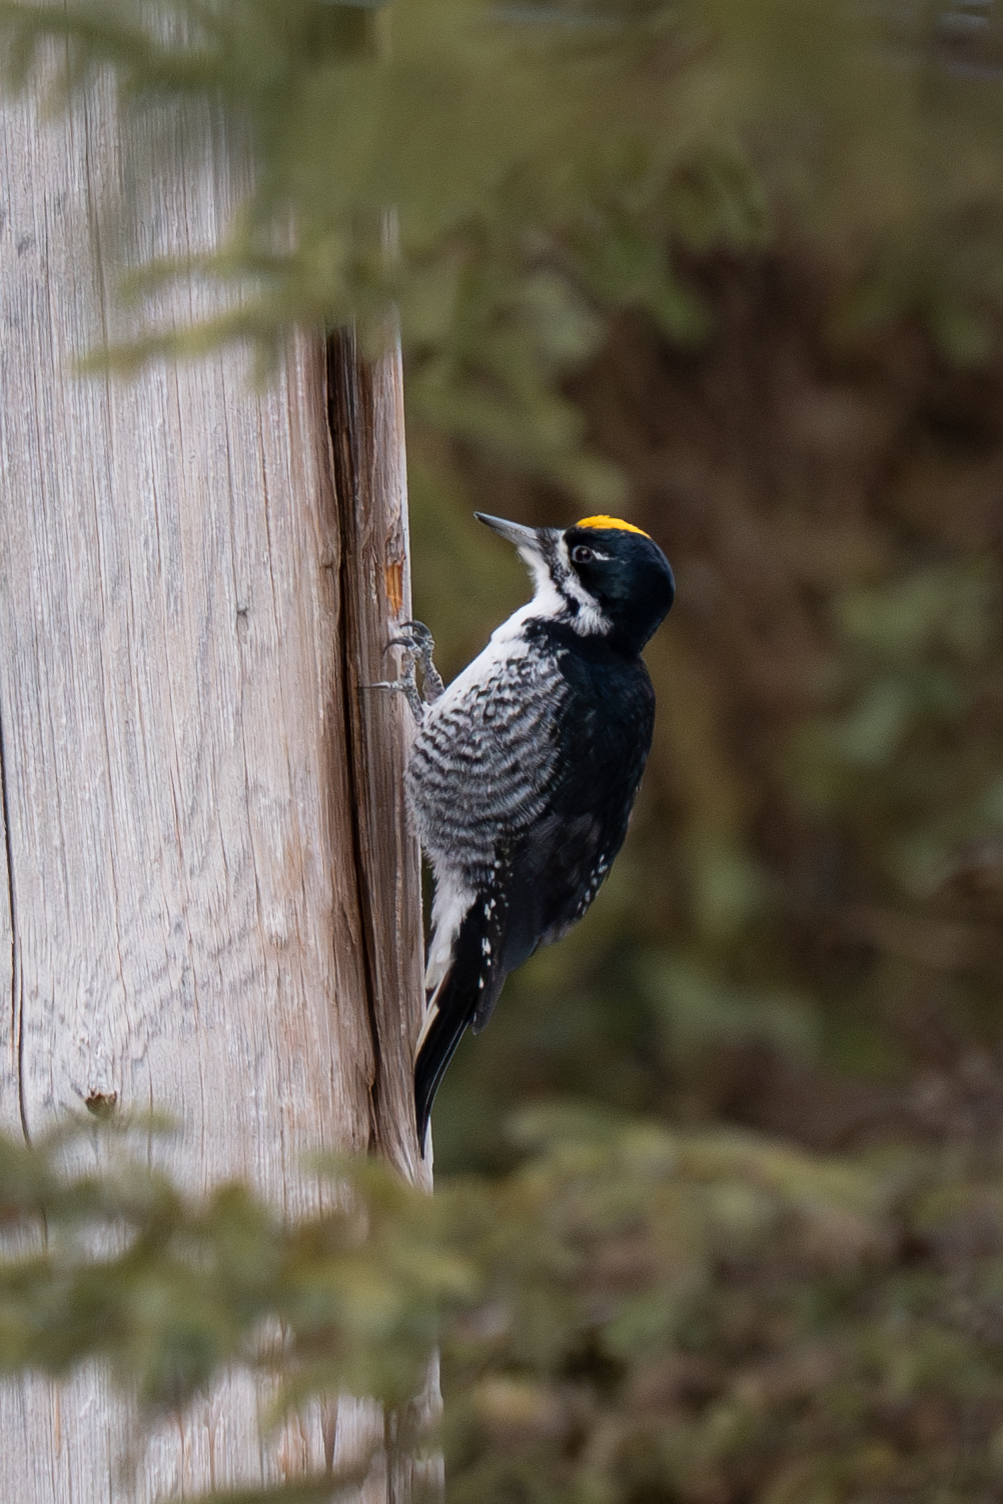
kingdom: Animalia
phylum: Chordata
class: Aves
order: Piciformes
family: Picidae
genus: Picoides
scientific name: Picoides arcticus
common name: Black-backed woodpecker
